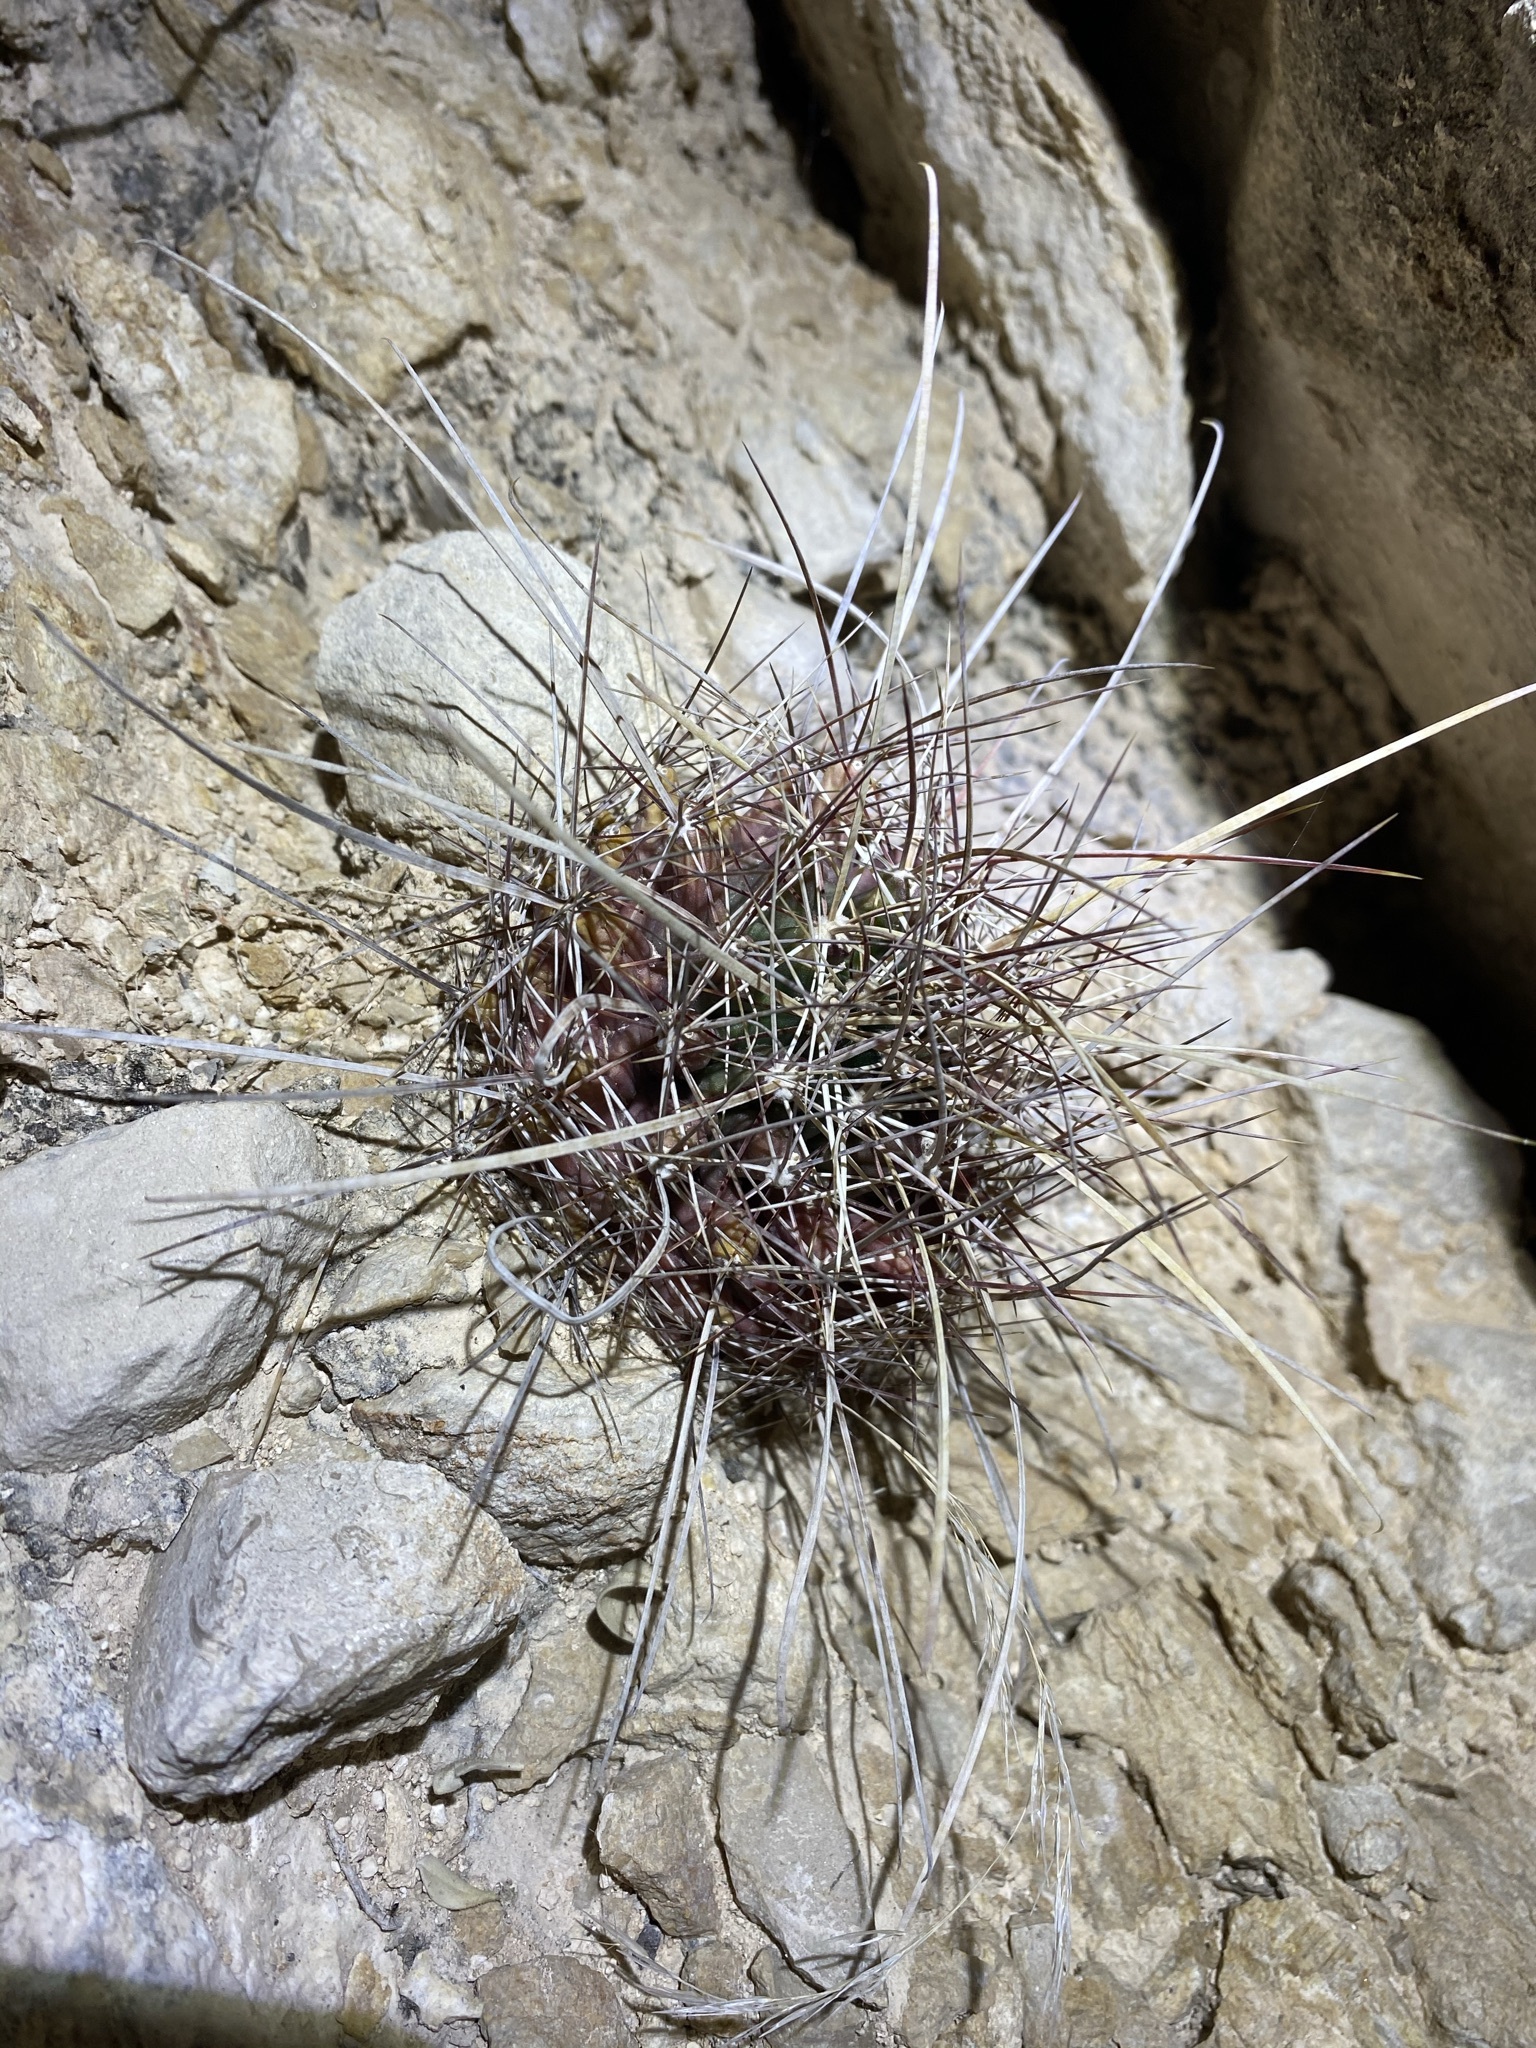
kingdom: Plantae
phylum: Tracheophyta
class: Magnoliopsida
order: Caryophyllales
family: Cactaceae
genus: Bisnaga
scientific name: Bisnaga hamatacantha
